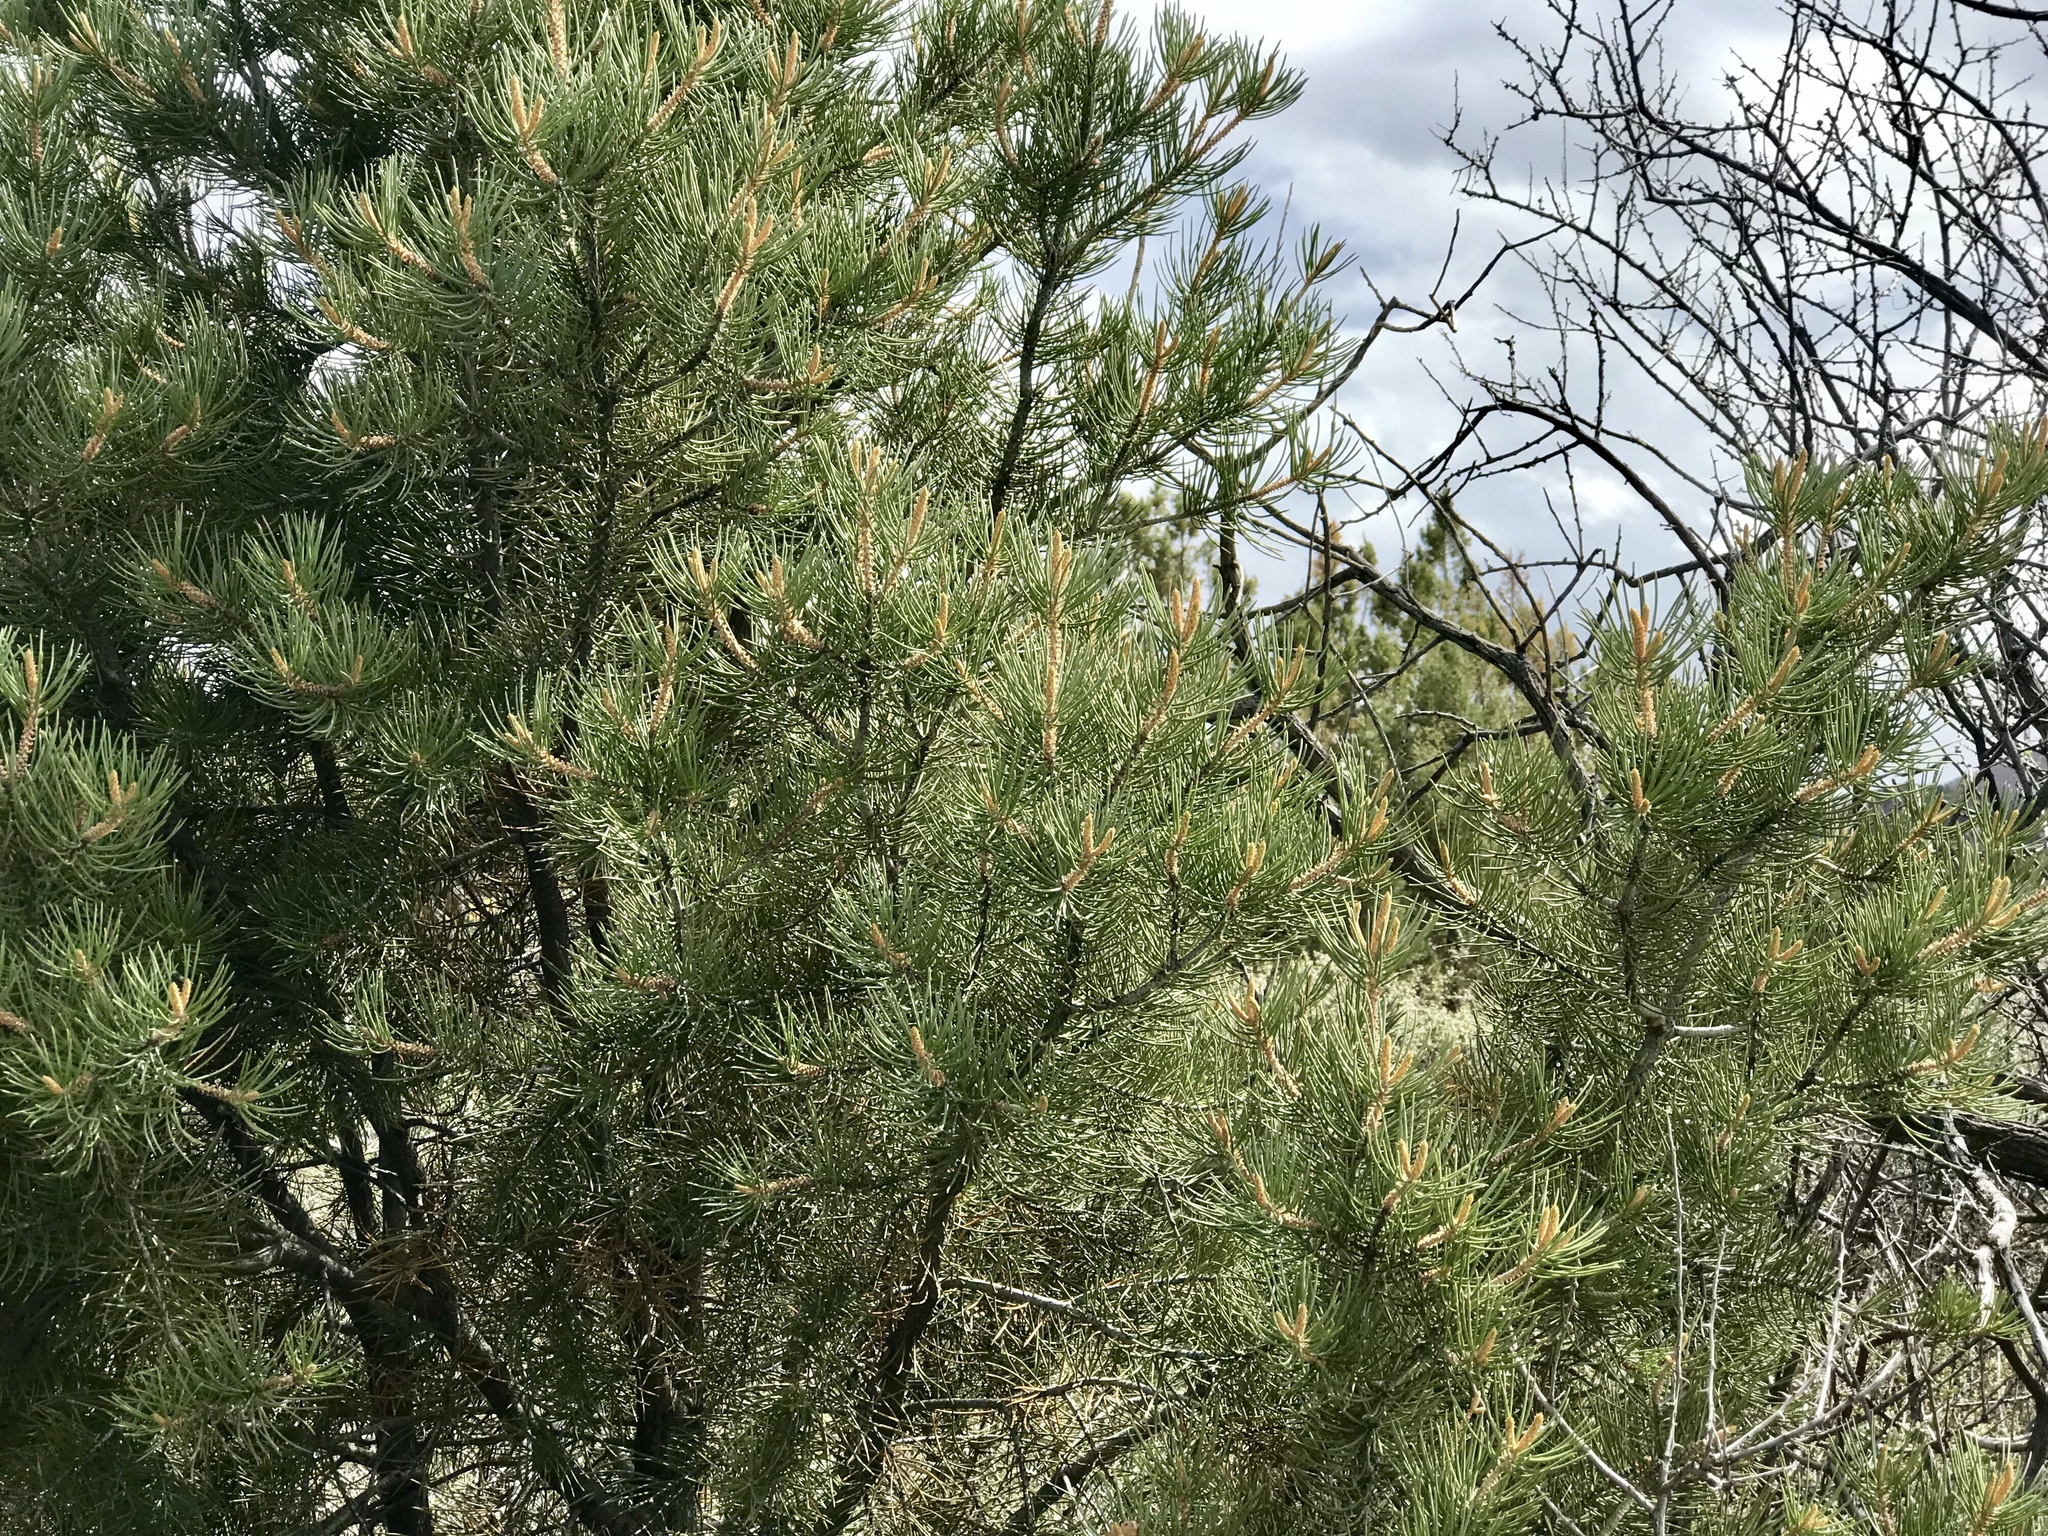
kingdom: Plantae
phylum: Tracheophyta
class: Pinopsida
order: Pinales
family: Pinaceae
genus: Pinus
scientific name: Pinus monophylla
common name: One-leaved nut pine
